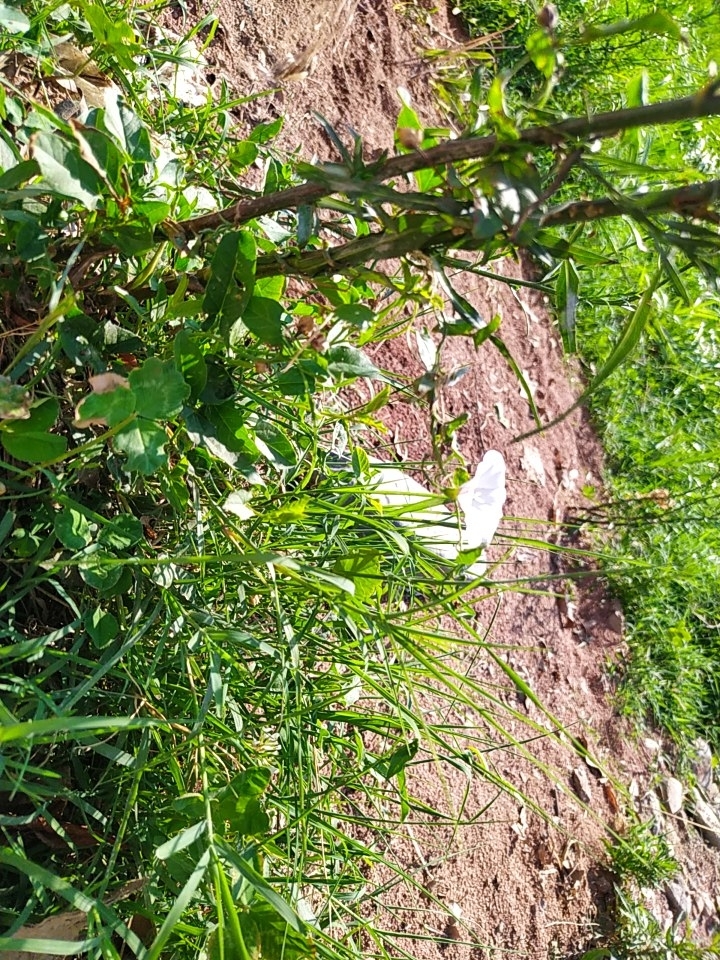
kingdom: Plantae
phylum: Tracheophyta
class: Magnoliopsida
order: Solanales
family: Convolvulaceae
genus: Convolvulus
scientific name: Convolvulus arvensis
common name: Field bindweed
